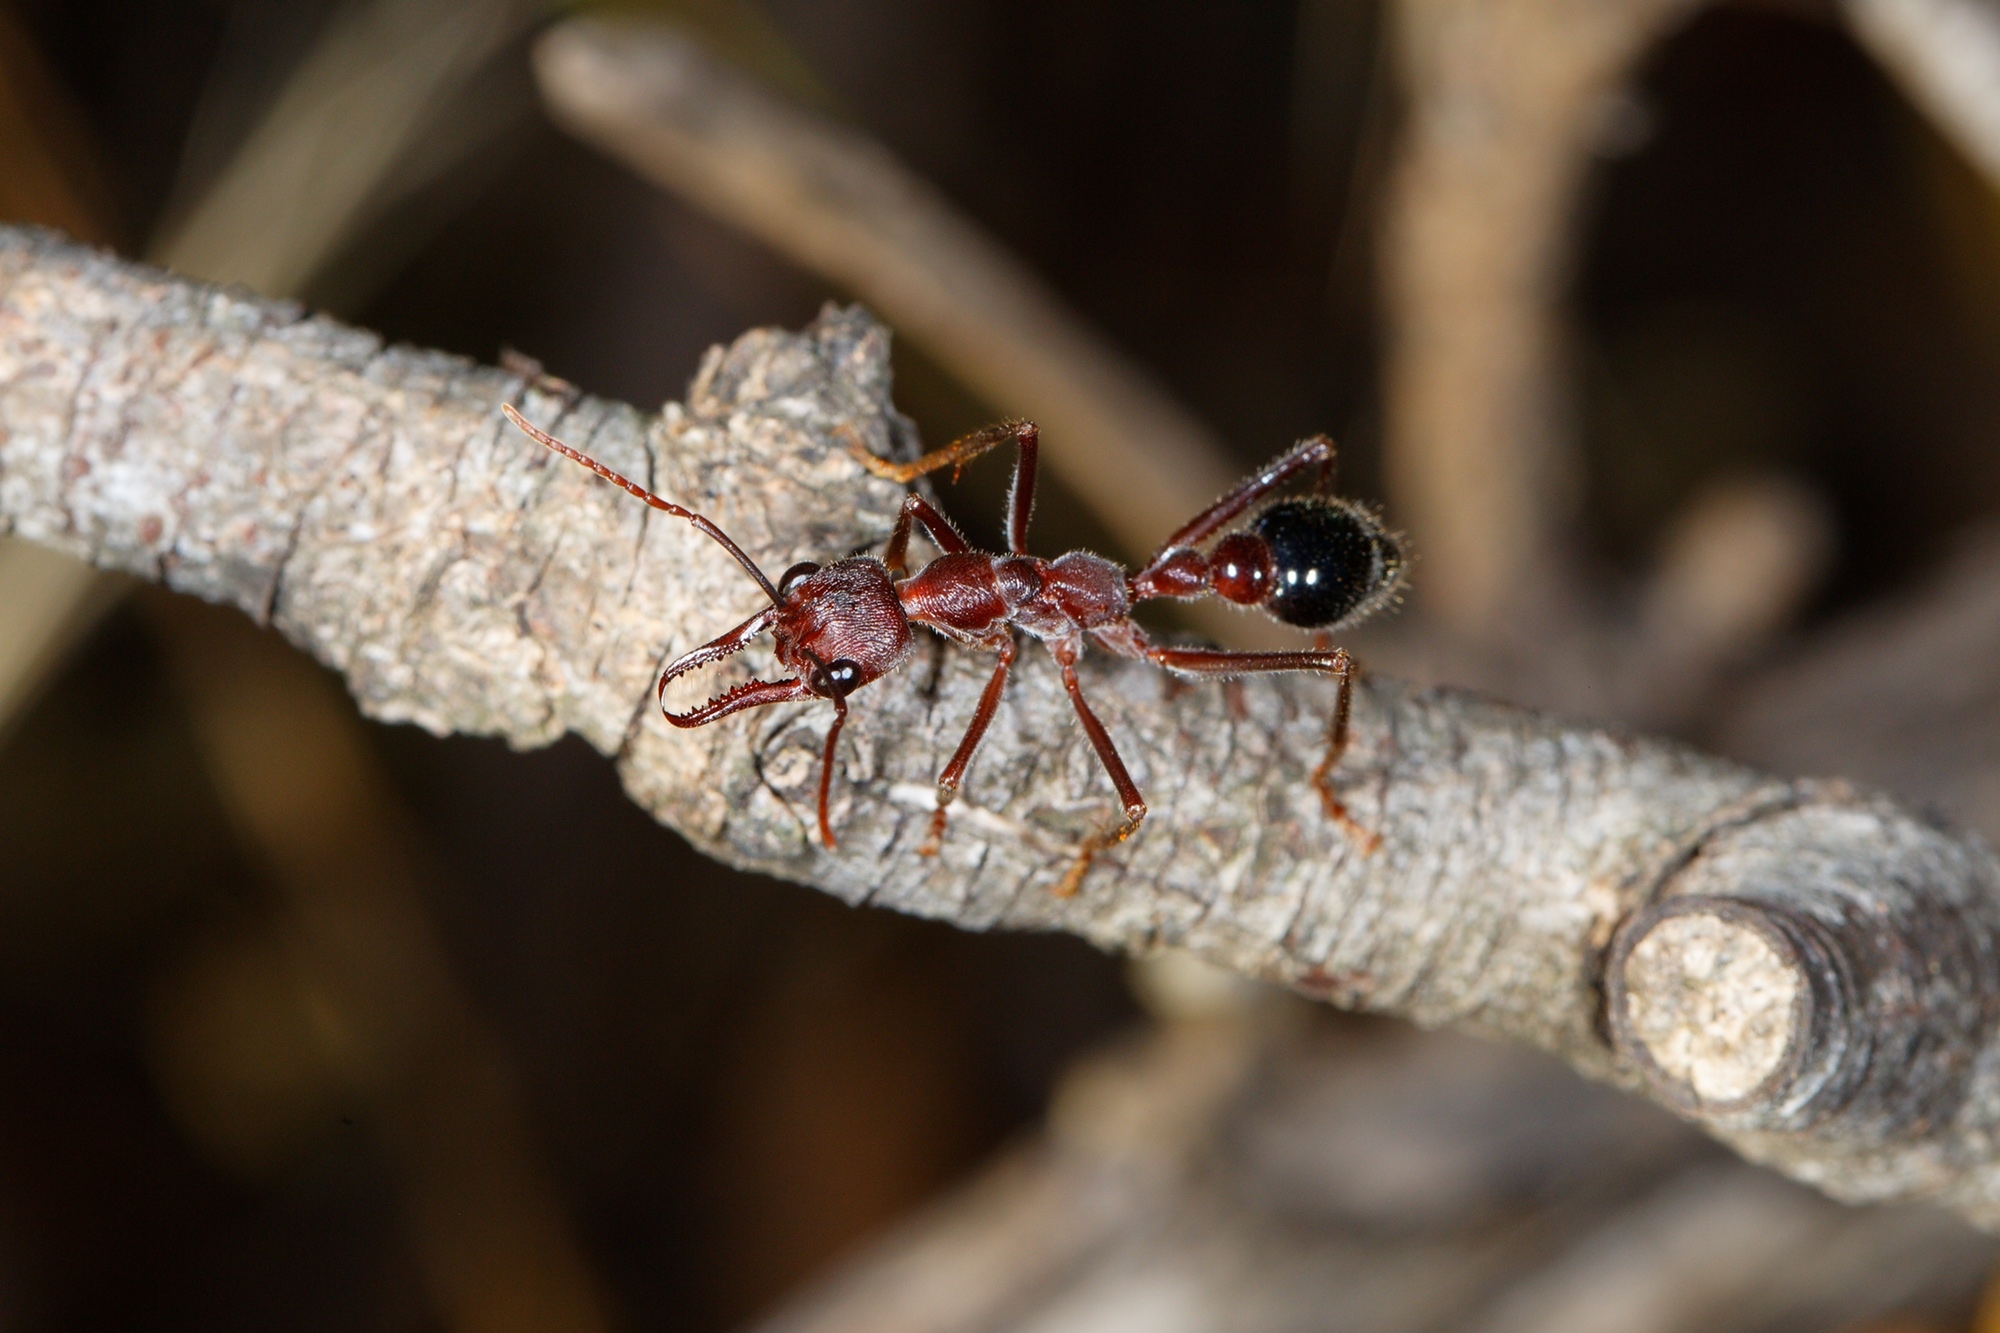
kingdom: Animalia
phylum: Arthropoda
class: Insecta
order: Hymenoptera
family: Formicidae
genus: Myrmecia
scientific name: Myrmecia forficata
